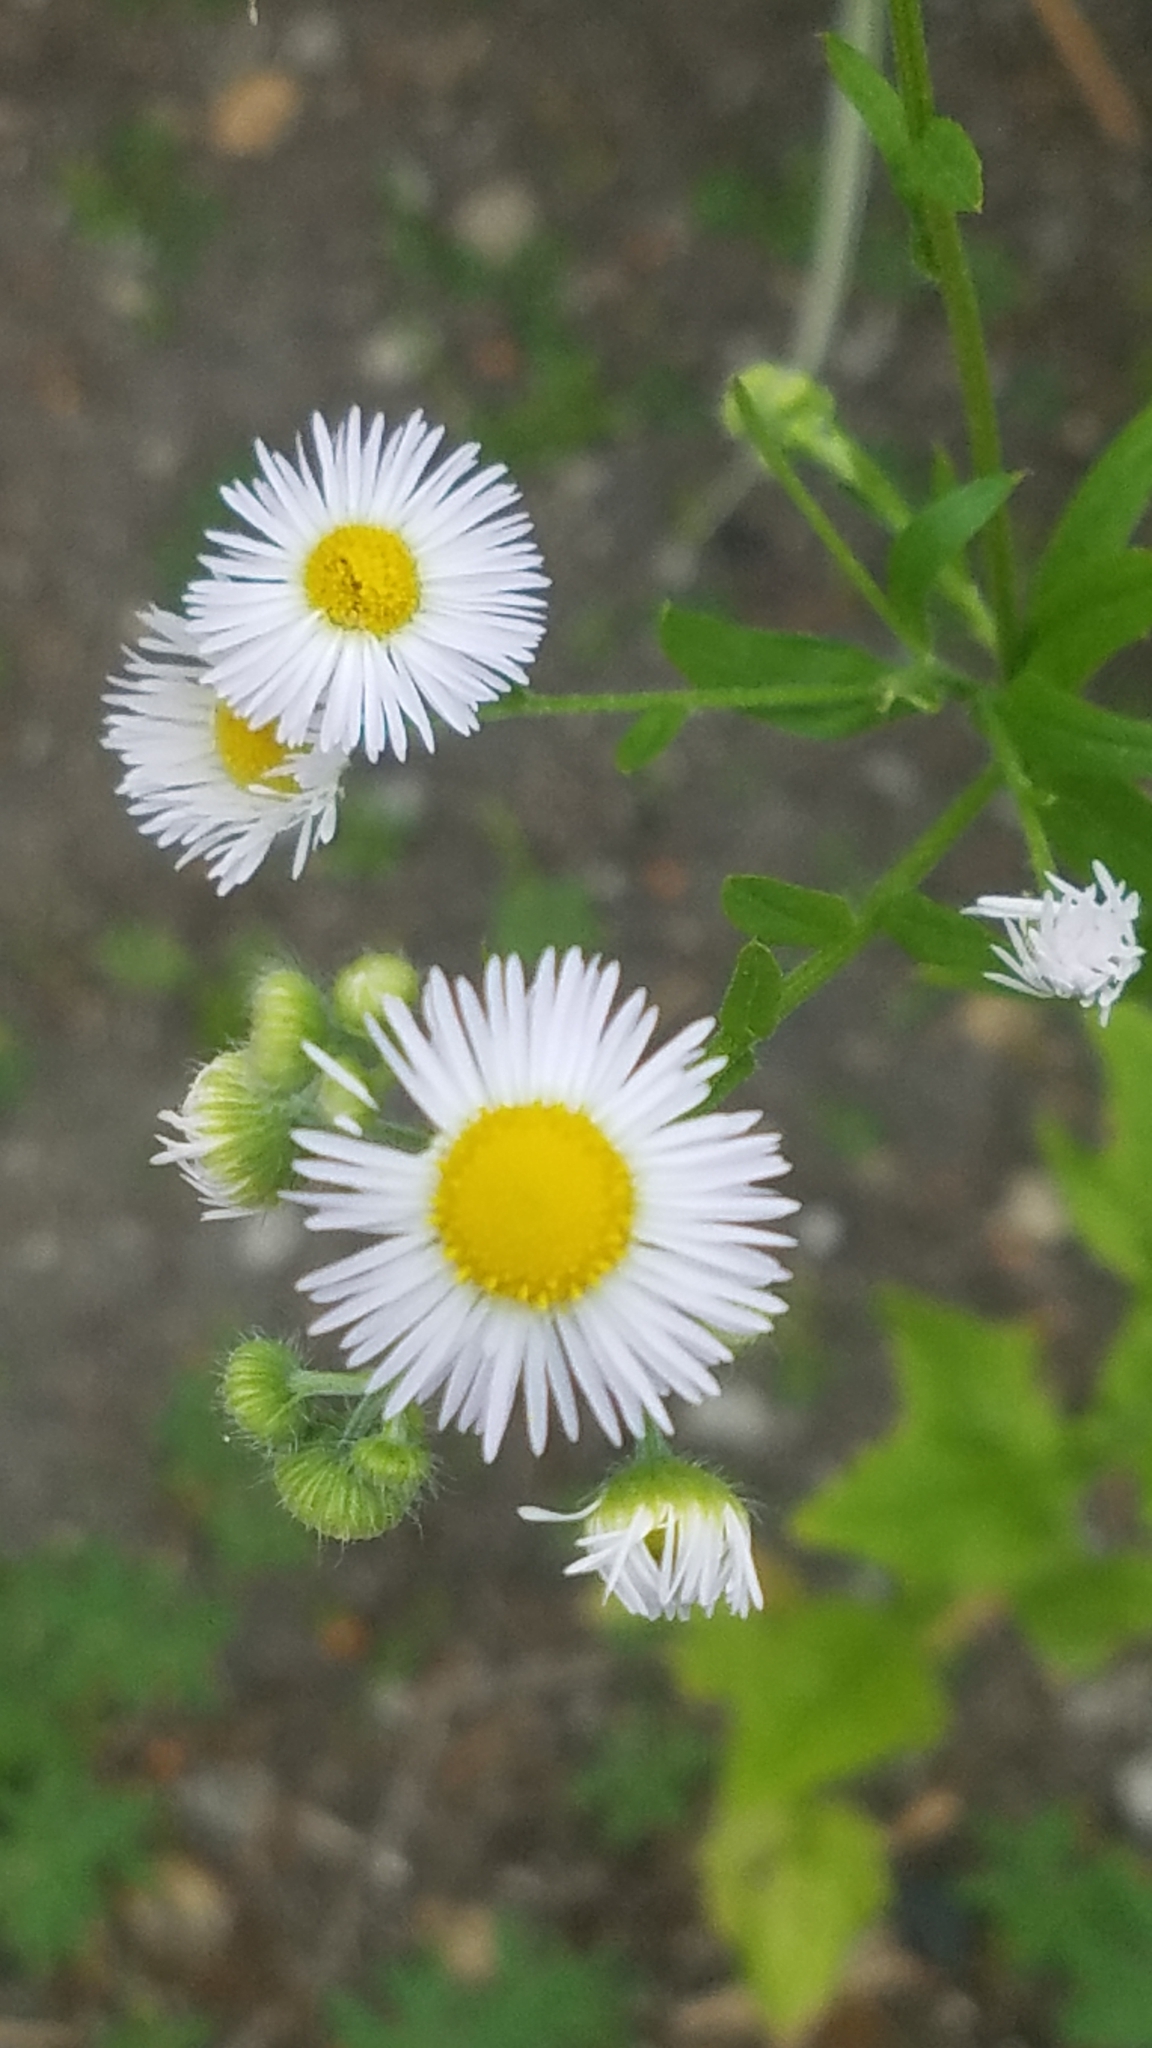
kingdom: Plantae
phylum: Tracheophyta
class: Magnoliopsida
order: Asterales
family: Asteraceae
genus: Erigeron
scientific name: Erigeron annuus
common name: Tall fleabane
